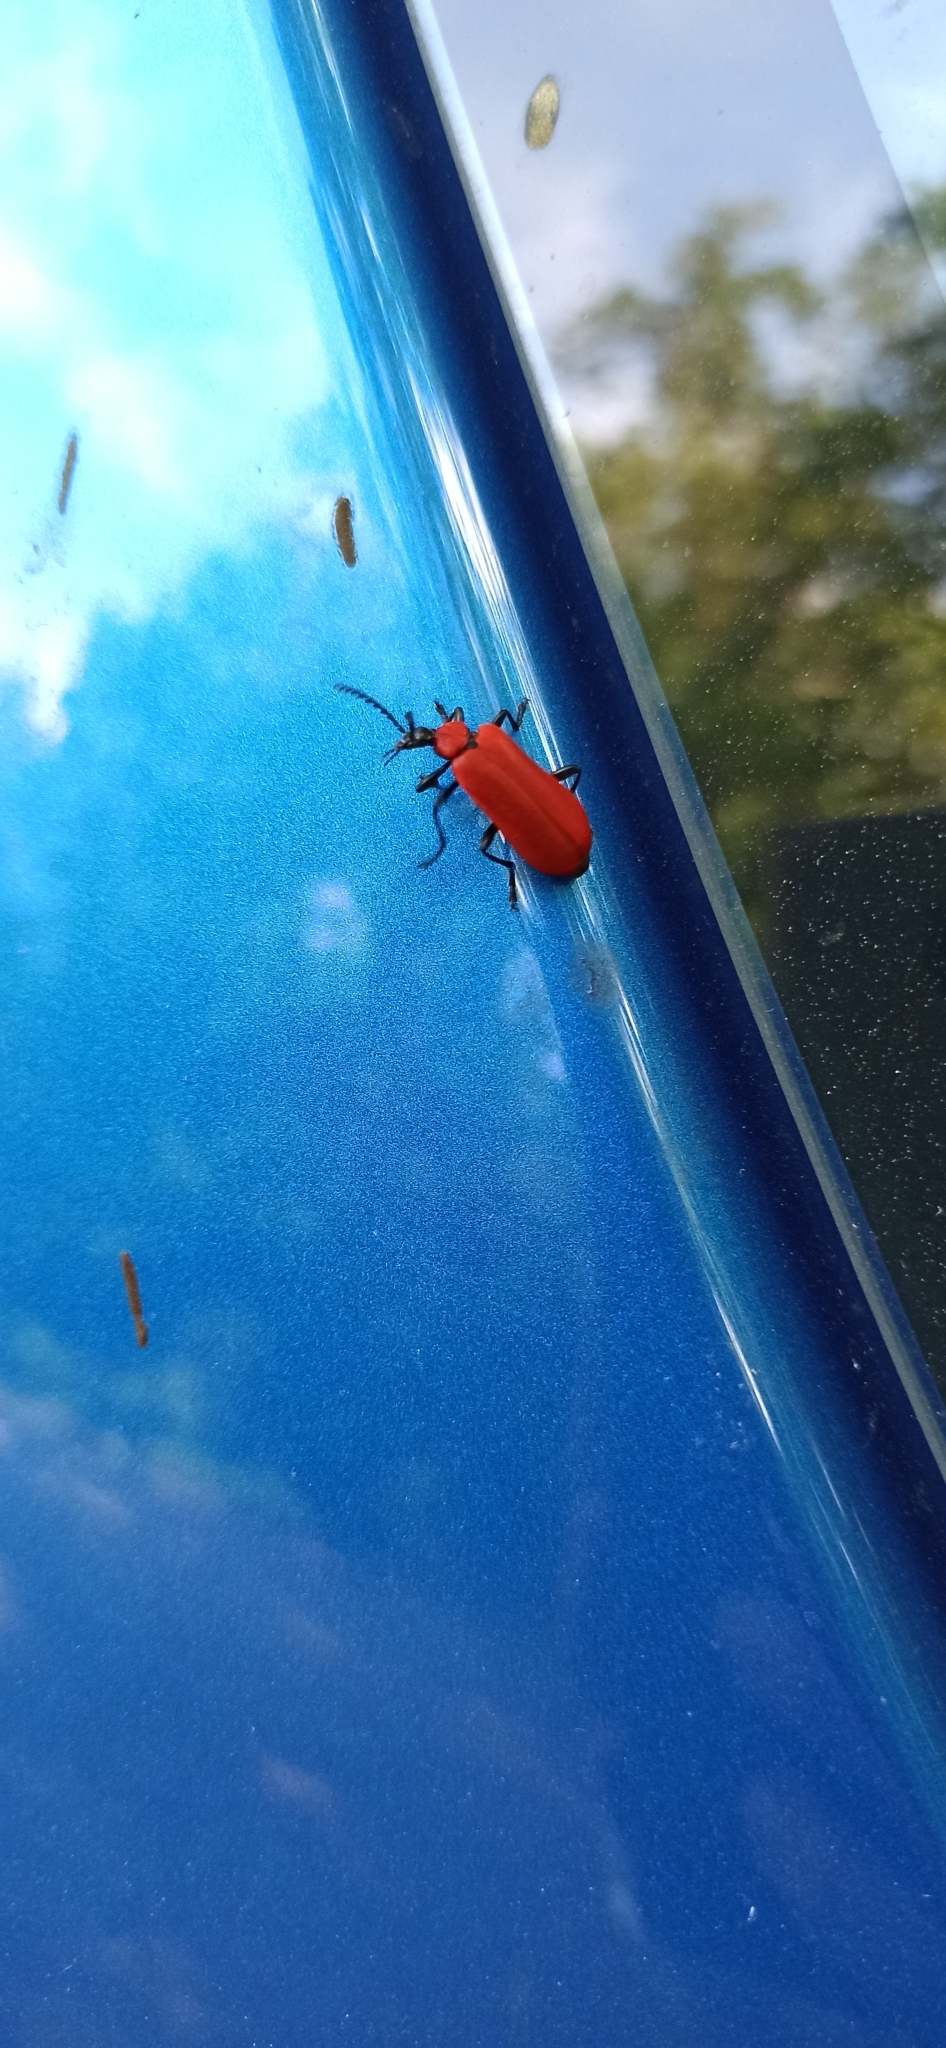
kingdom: Animalia
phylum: Arthropoda
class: Insecta
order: Coleoptera
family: Pyrochroidae
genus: Pyrochroa
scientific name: Pyrochroa coccinea
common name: Black-headed cardinal beetle
